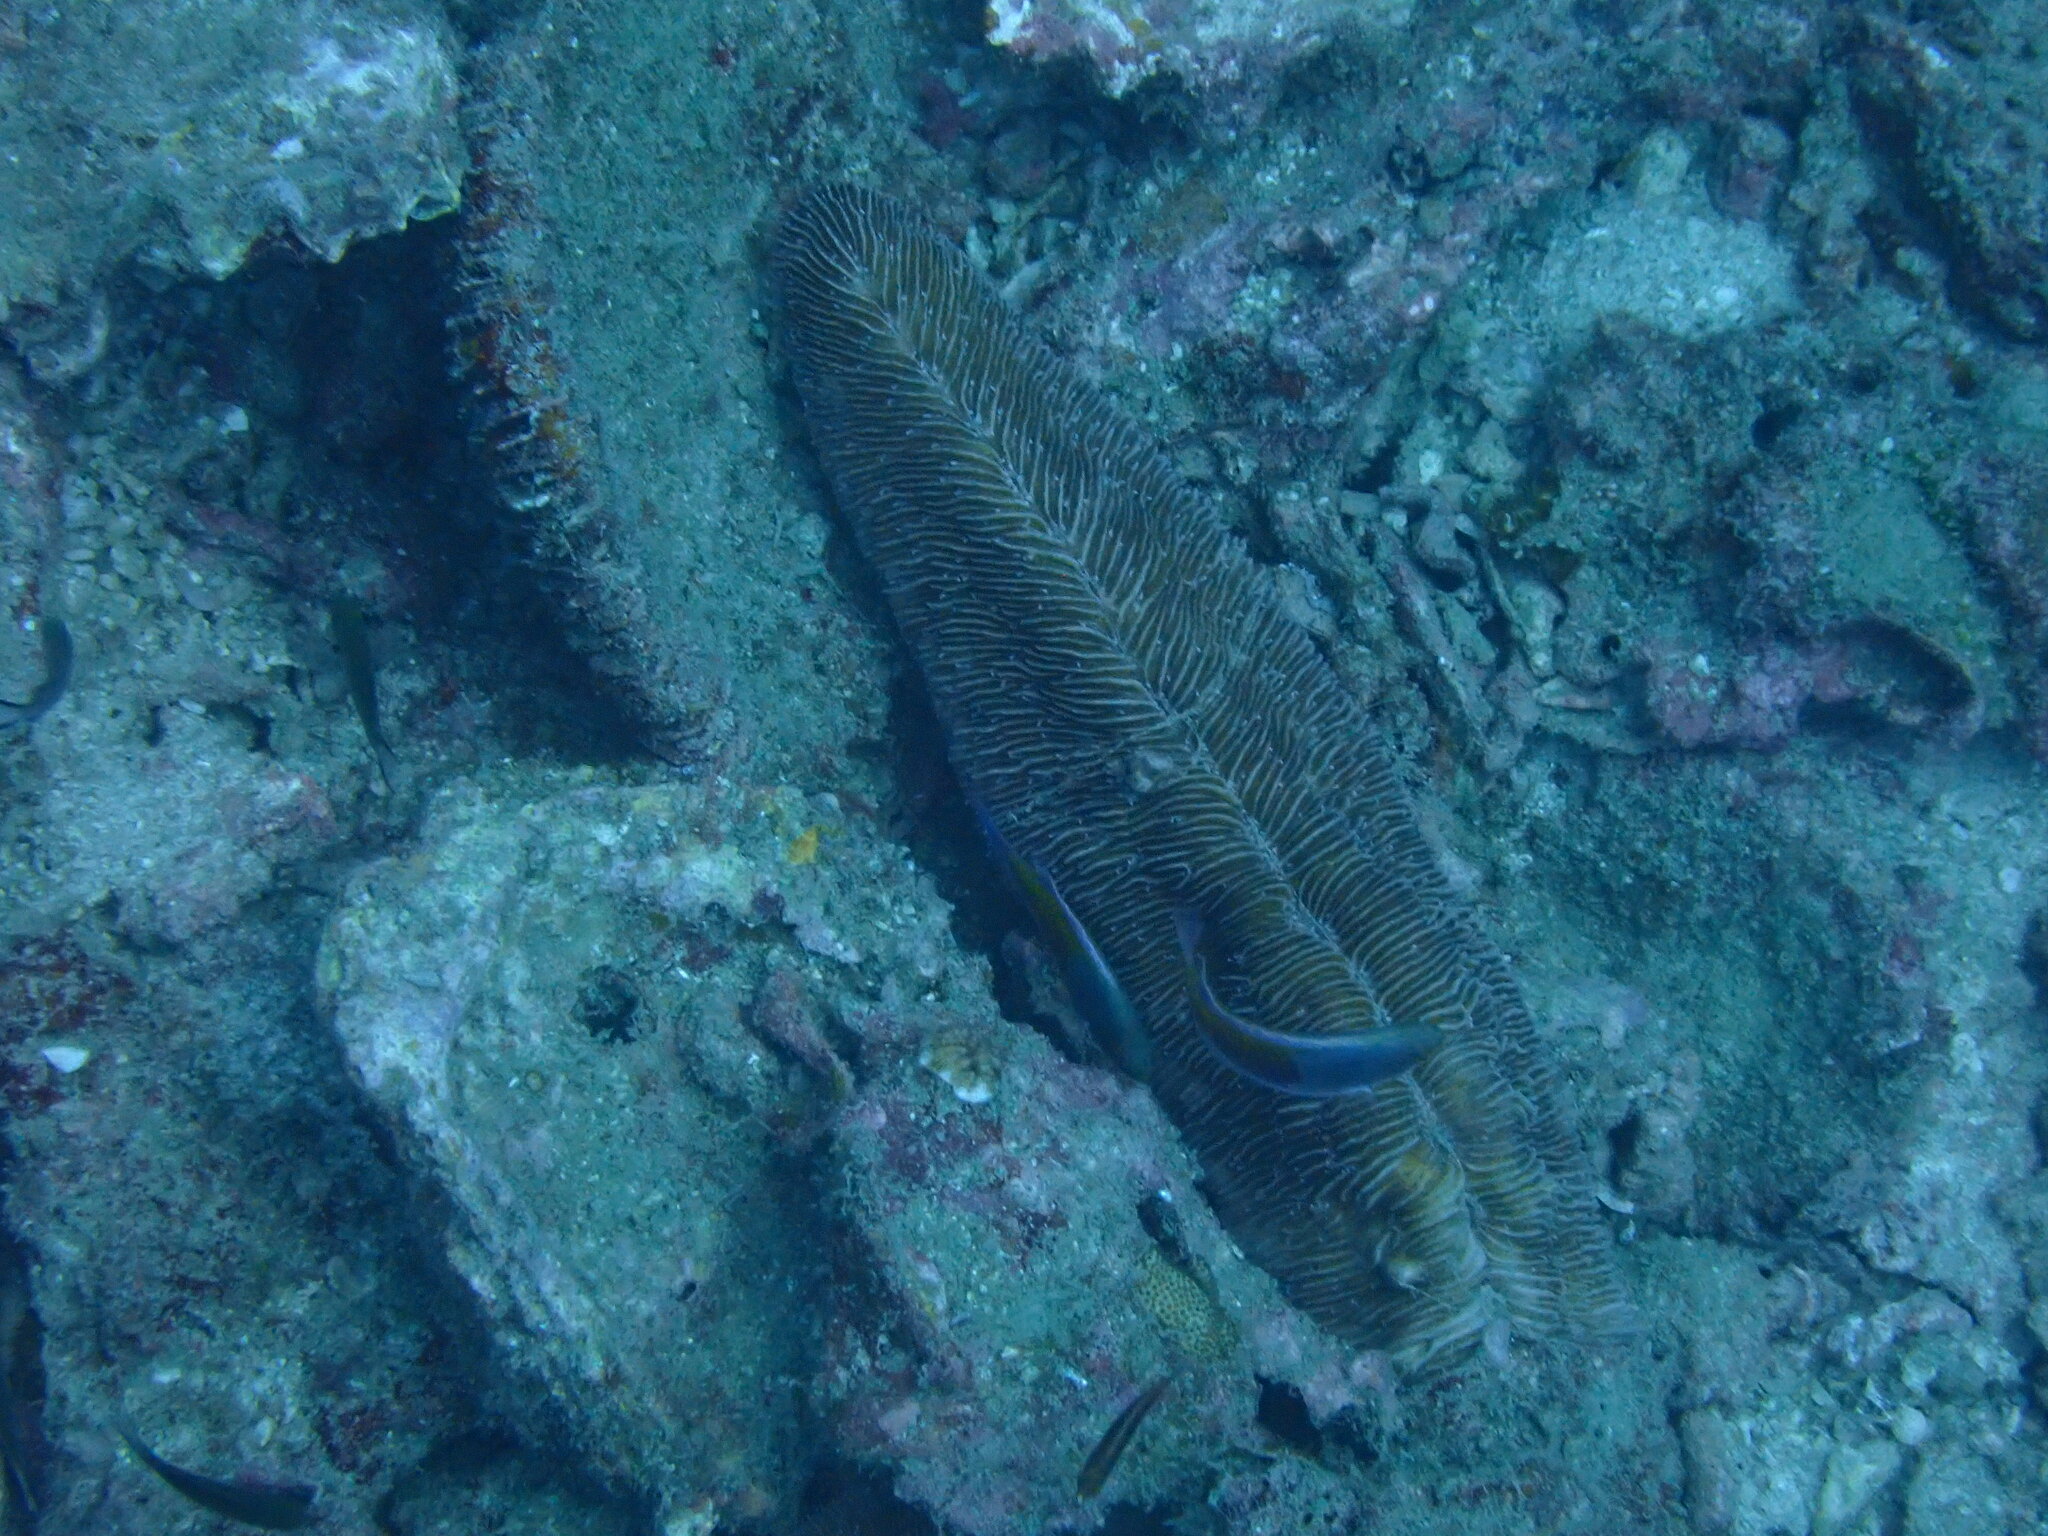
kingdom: Animalia
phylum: Cnidaria
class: Anthozoa
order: Scleractinia
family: Fungiidae
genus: Herpolitha
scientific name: Herpolitha limax
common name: Striate boomerang coral
